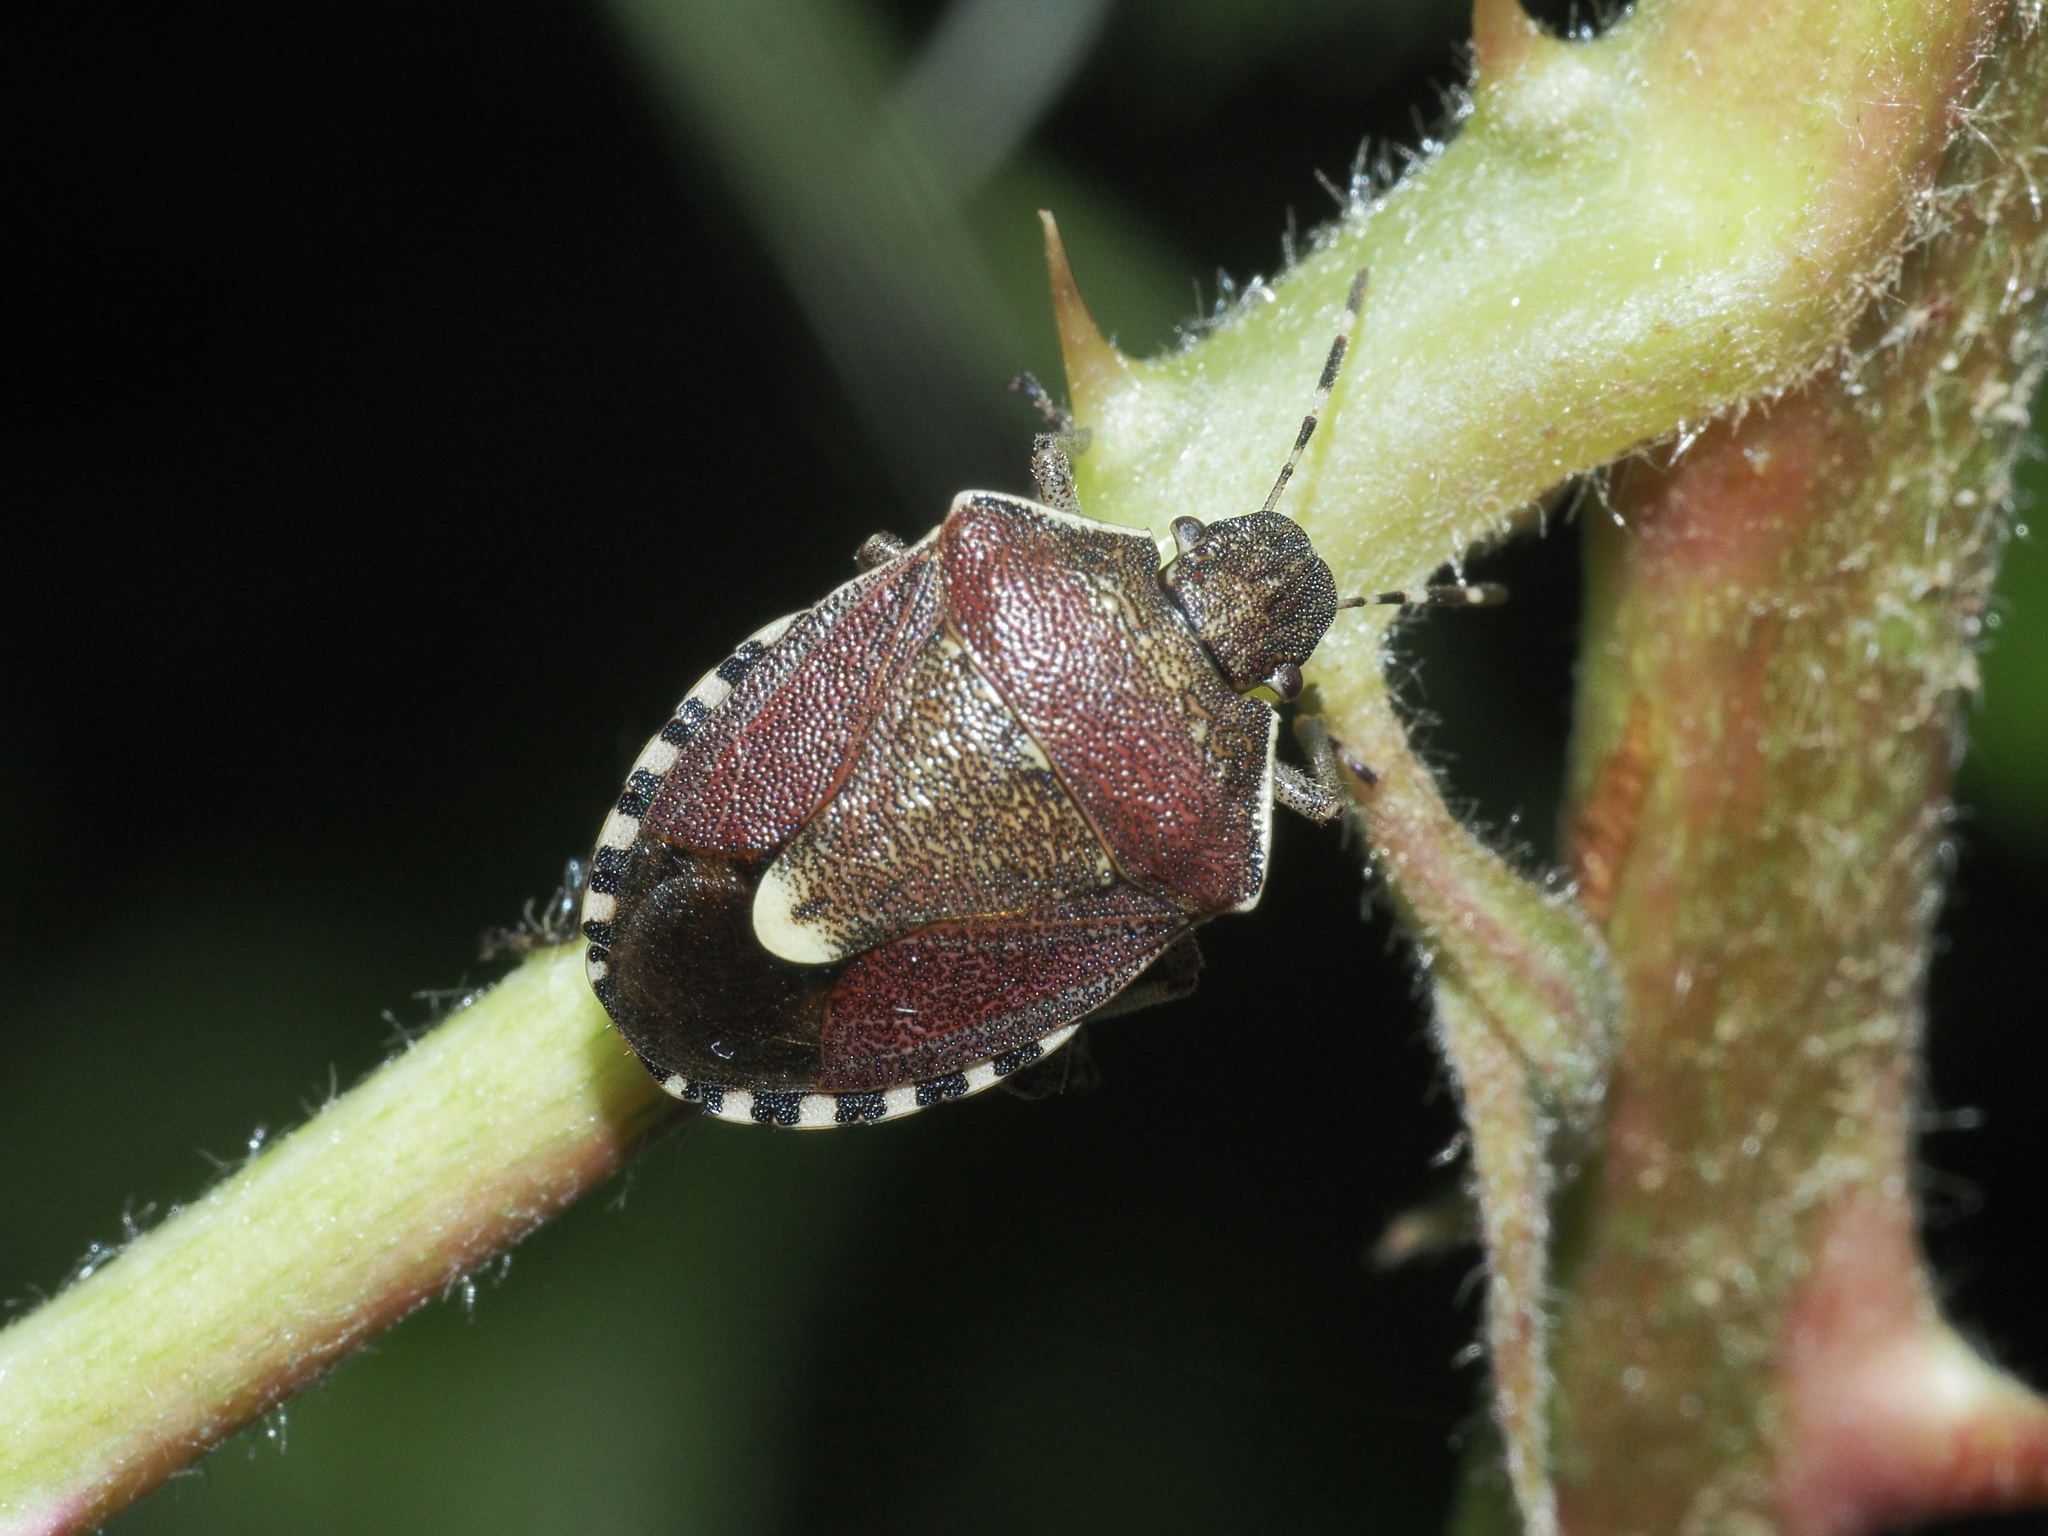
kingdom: Animalia
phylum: Arthropoda
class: Insecta
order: Hemiptera
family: Pentatomidae
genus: Holcostethus
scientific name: Holcostethus sphacelatus
